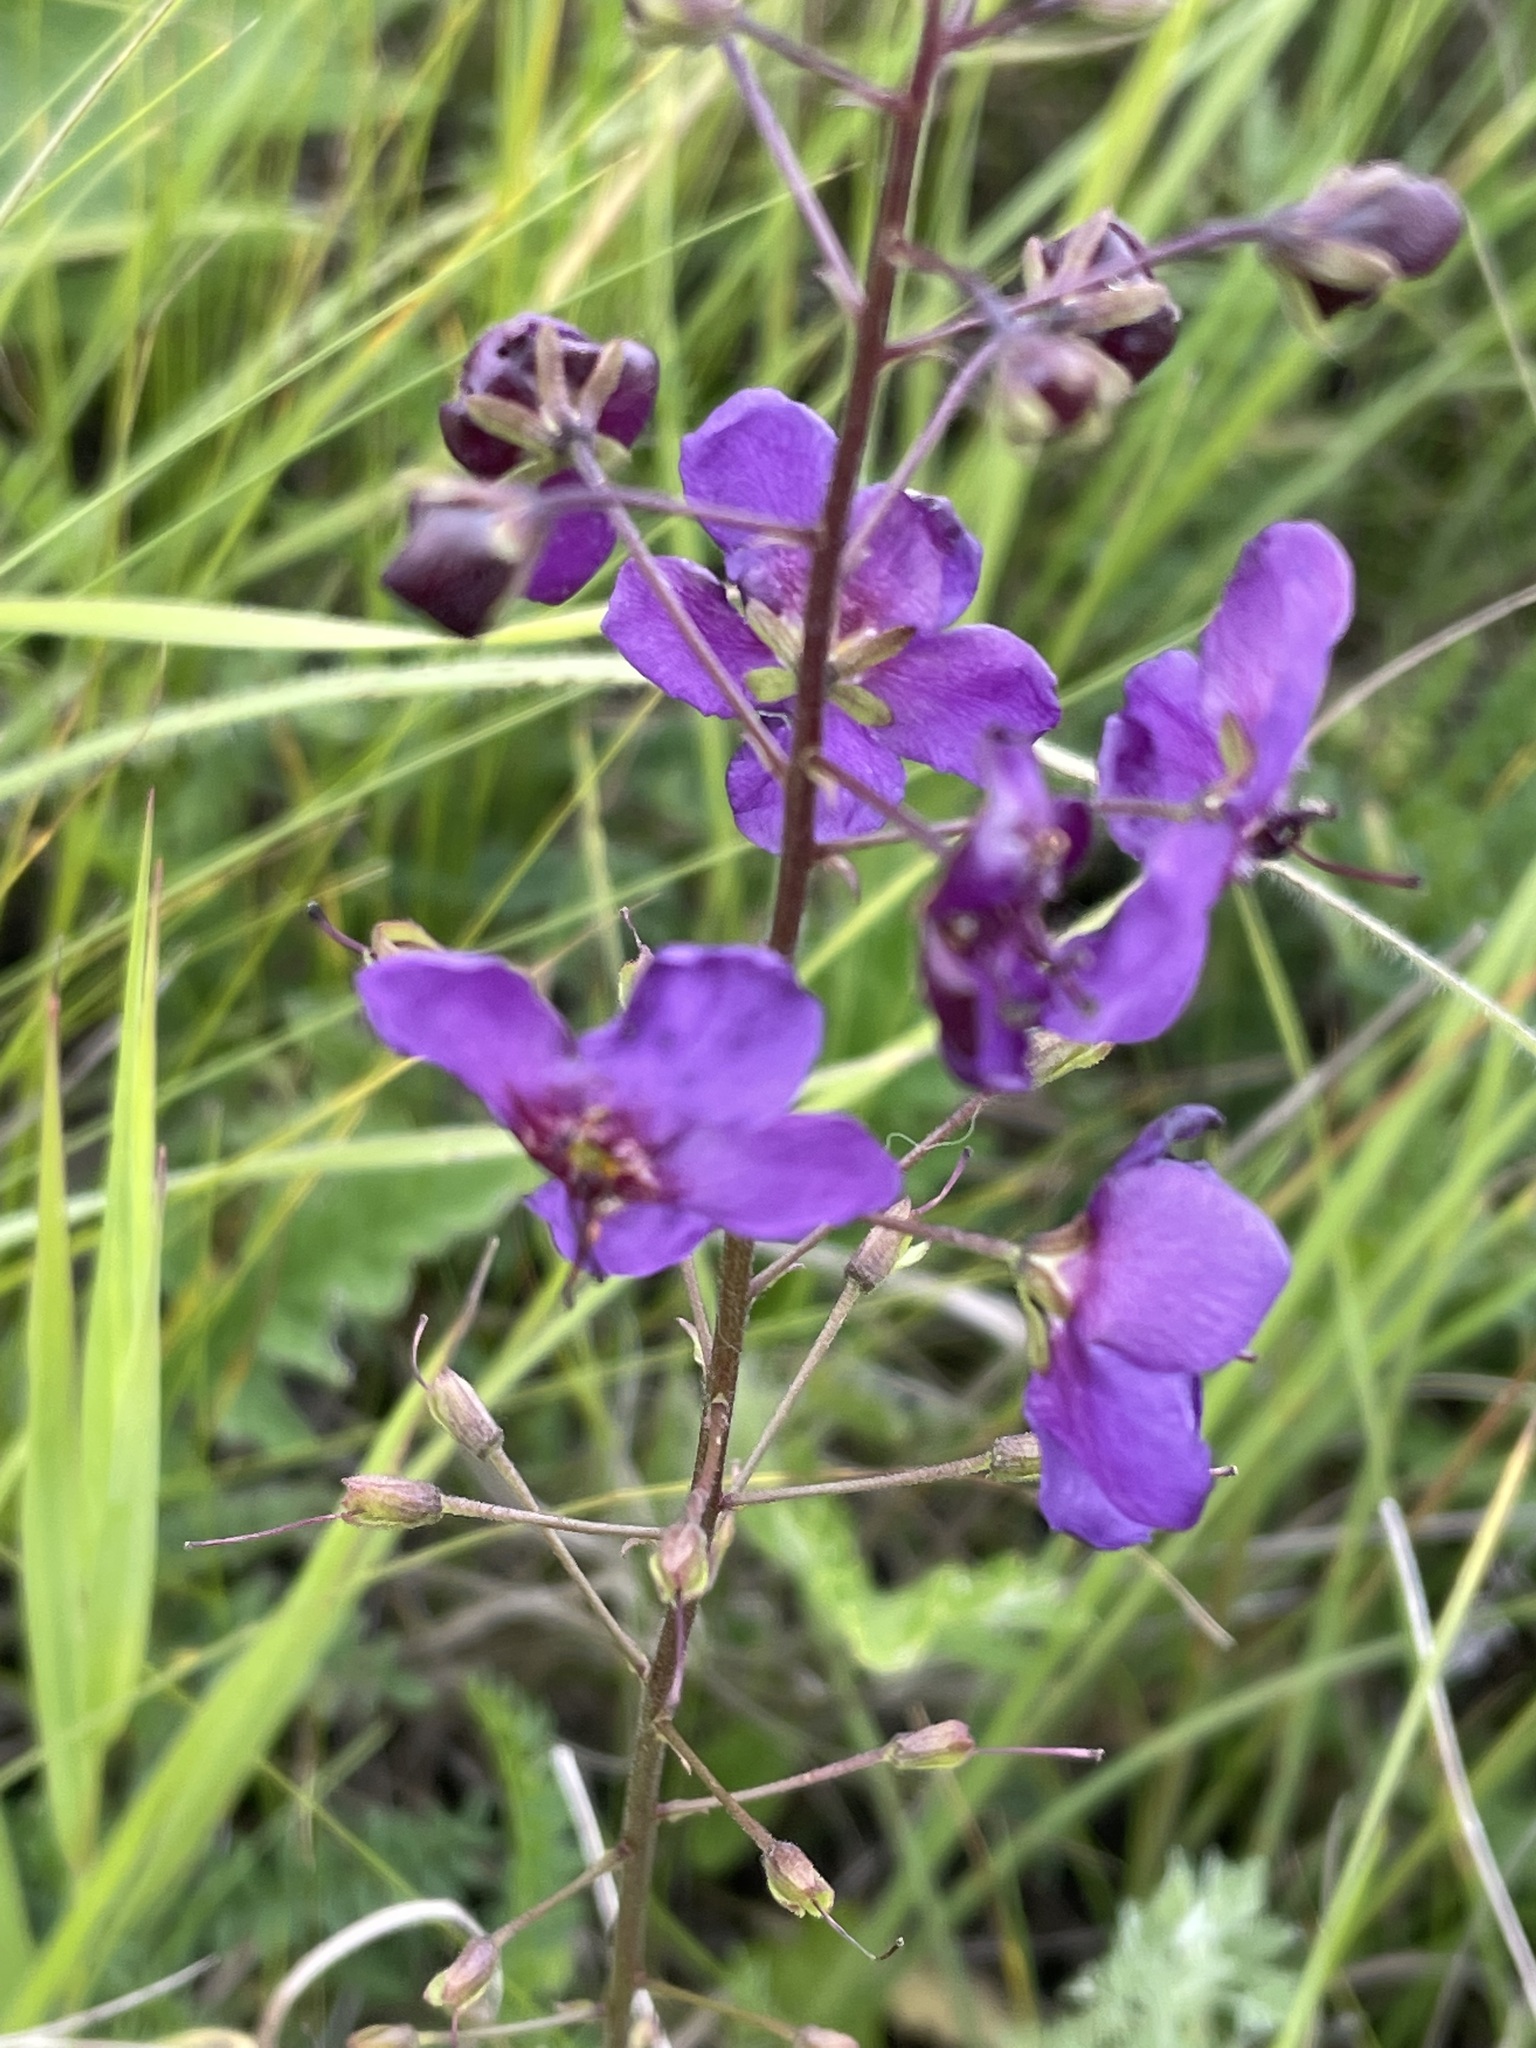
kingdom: Plantae
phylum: Tracheophyta
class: Magnoliopsida
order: Lamiales
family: Scrophulariaceae
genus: Verbascum
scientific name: Verbascum phoeniceum
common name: Purple mullein
